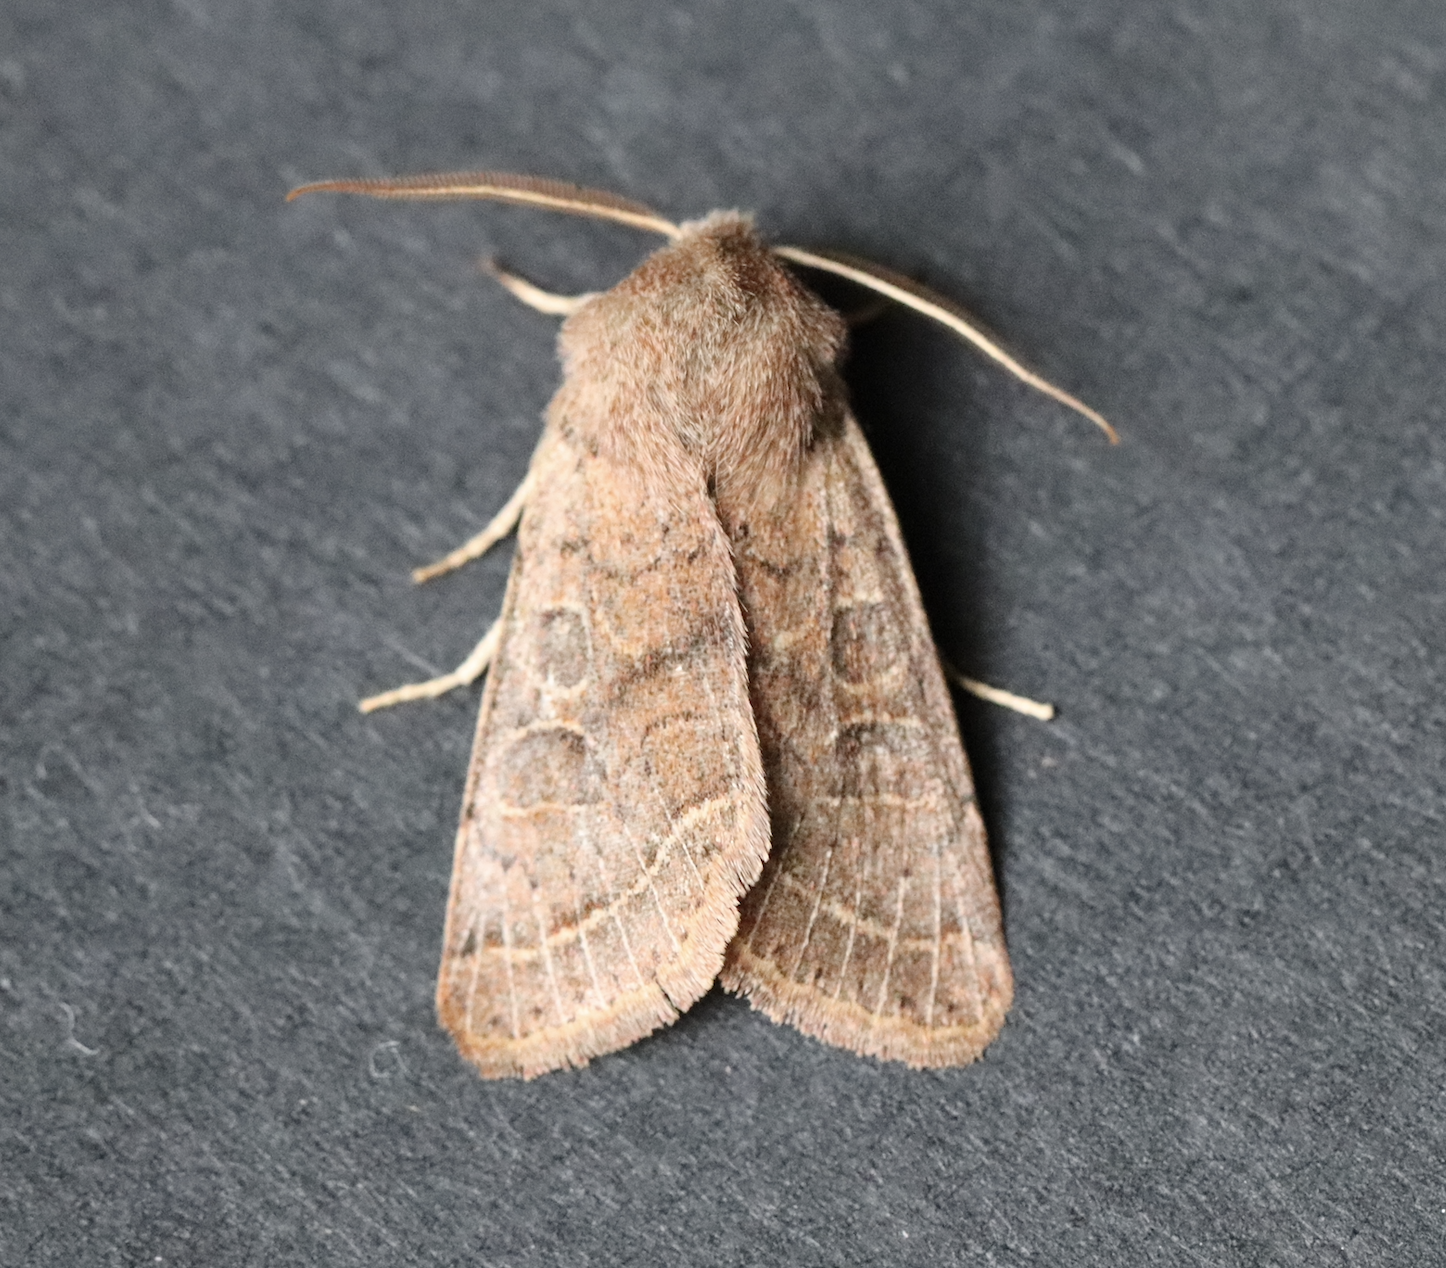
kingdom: Animalia
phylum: Arthropoda
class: Insecta
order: Lepidoptera
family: Noctuidae
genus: Orthosia
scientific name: Orthosia cerasi
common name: Common quaker
